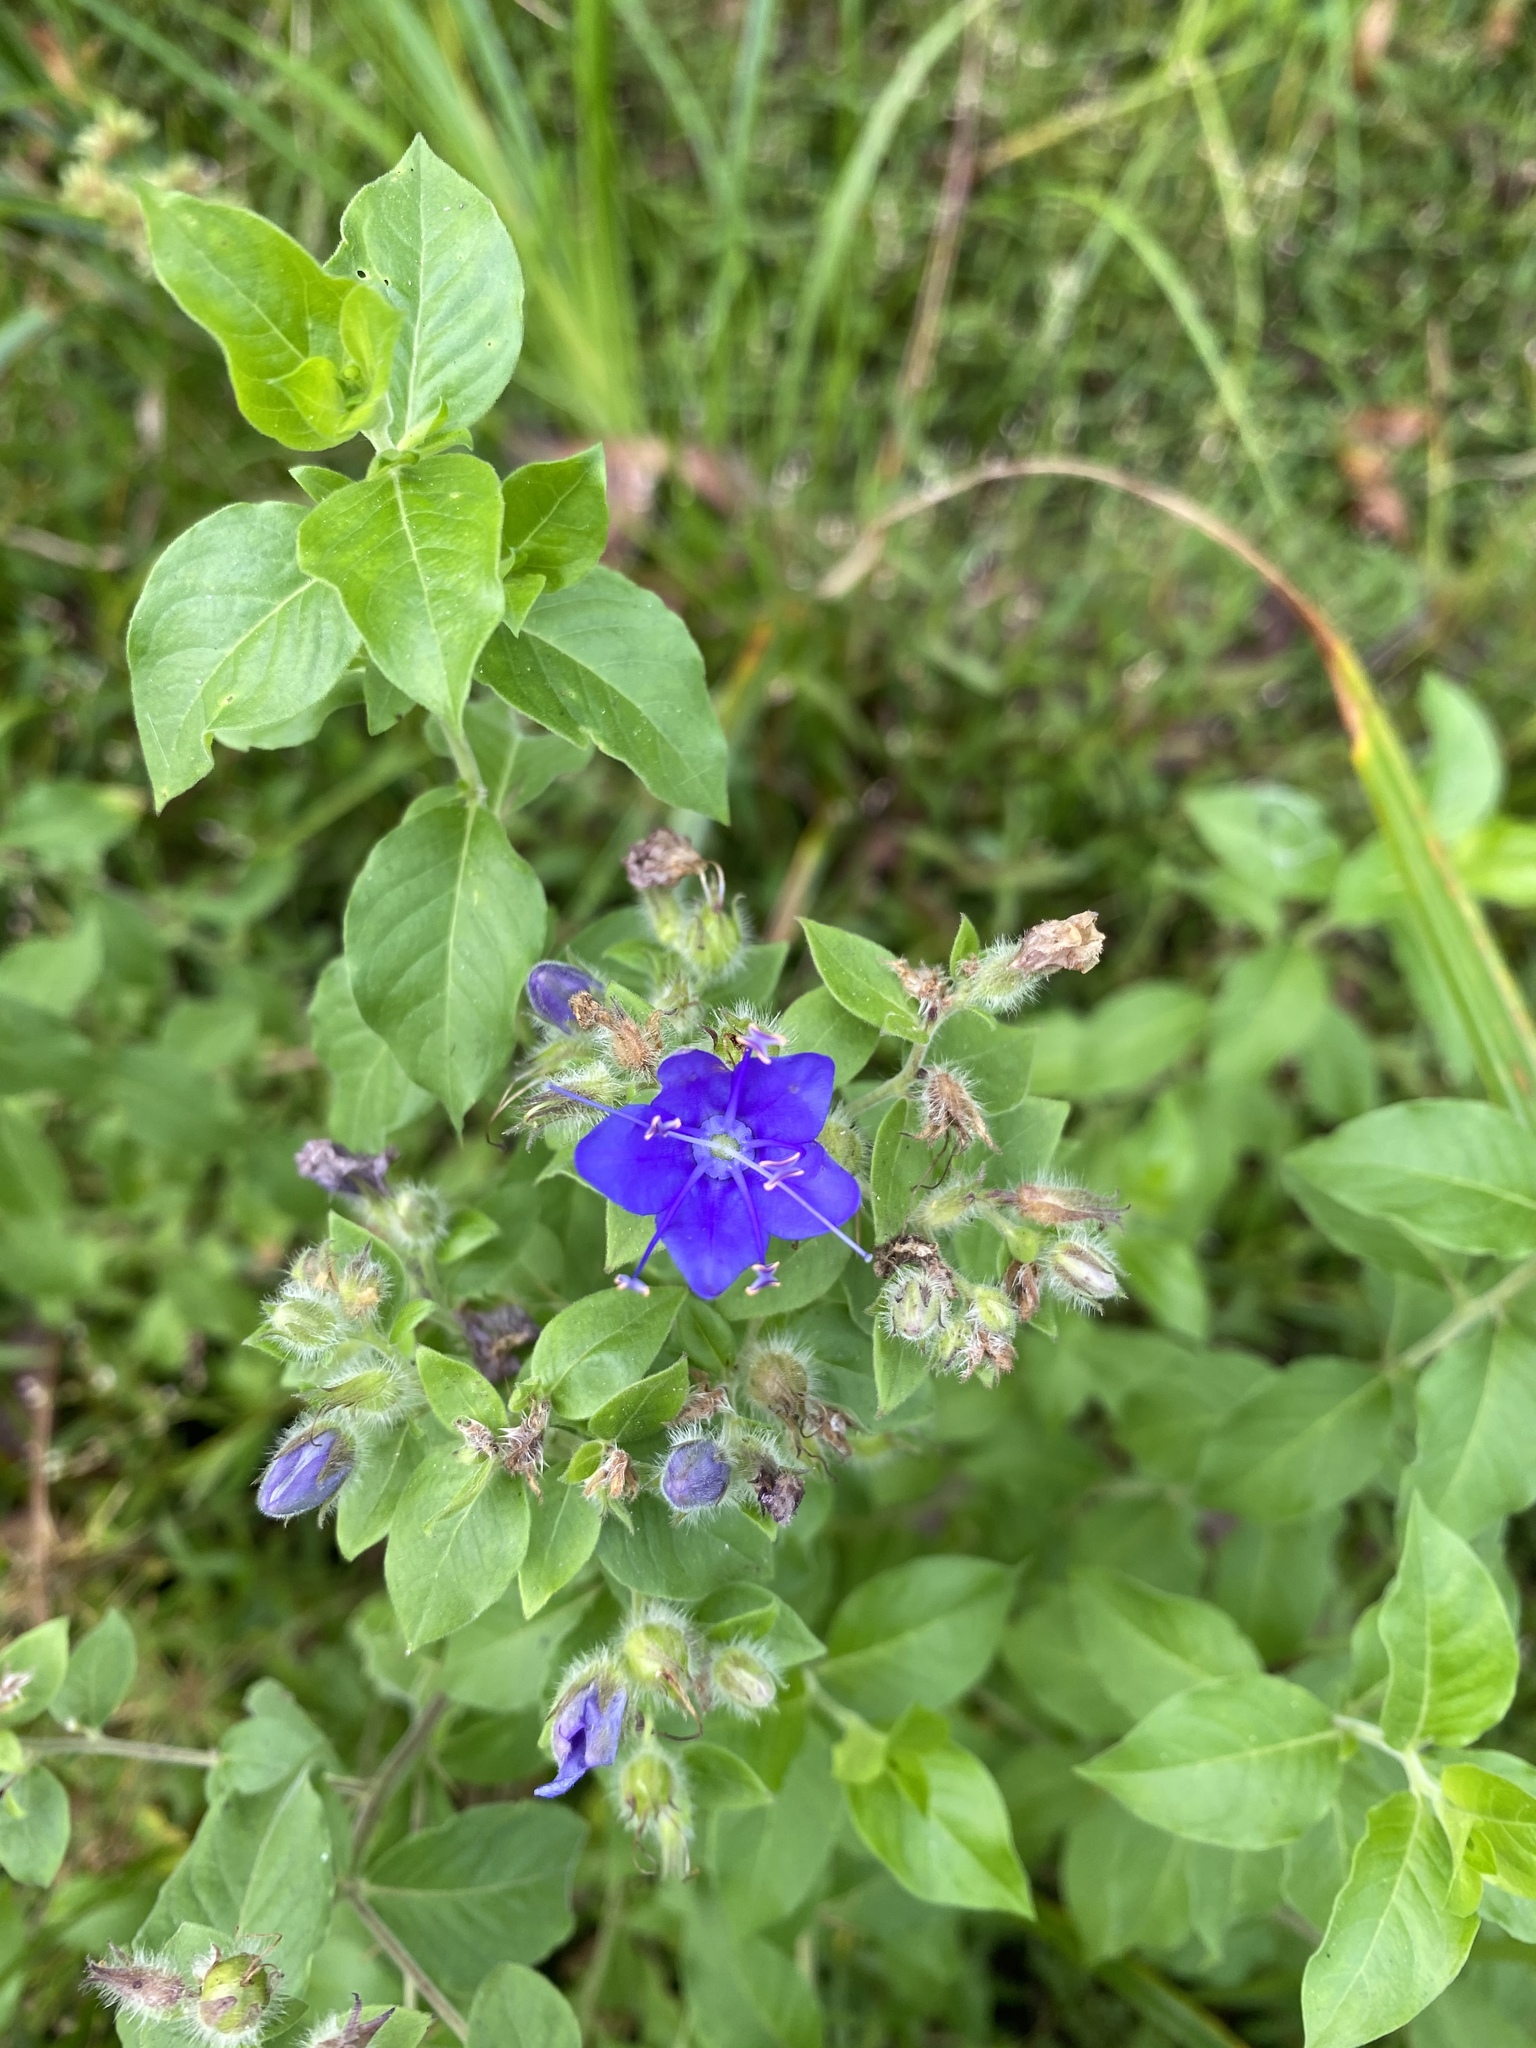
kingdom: Plantae
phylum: Tracheophyta
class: Magnoliopsida
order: Solanales
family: Hydroleaceae
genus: Hydrolea
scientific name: Hydrolea ovata
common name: Ovate false fiddleleaf
